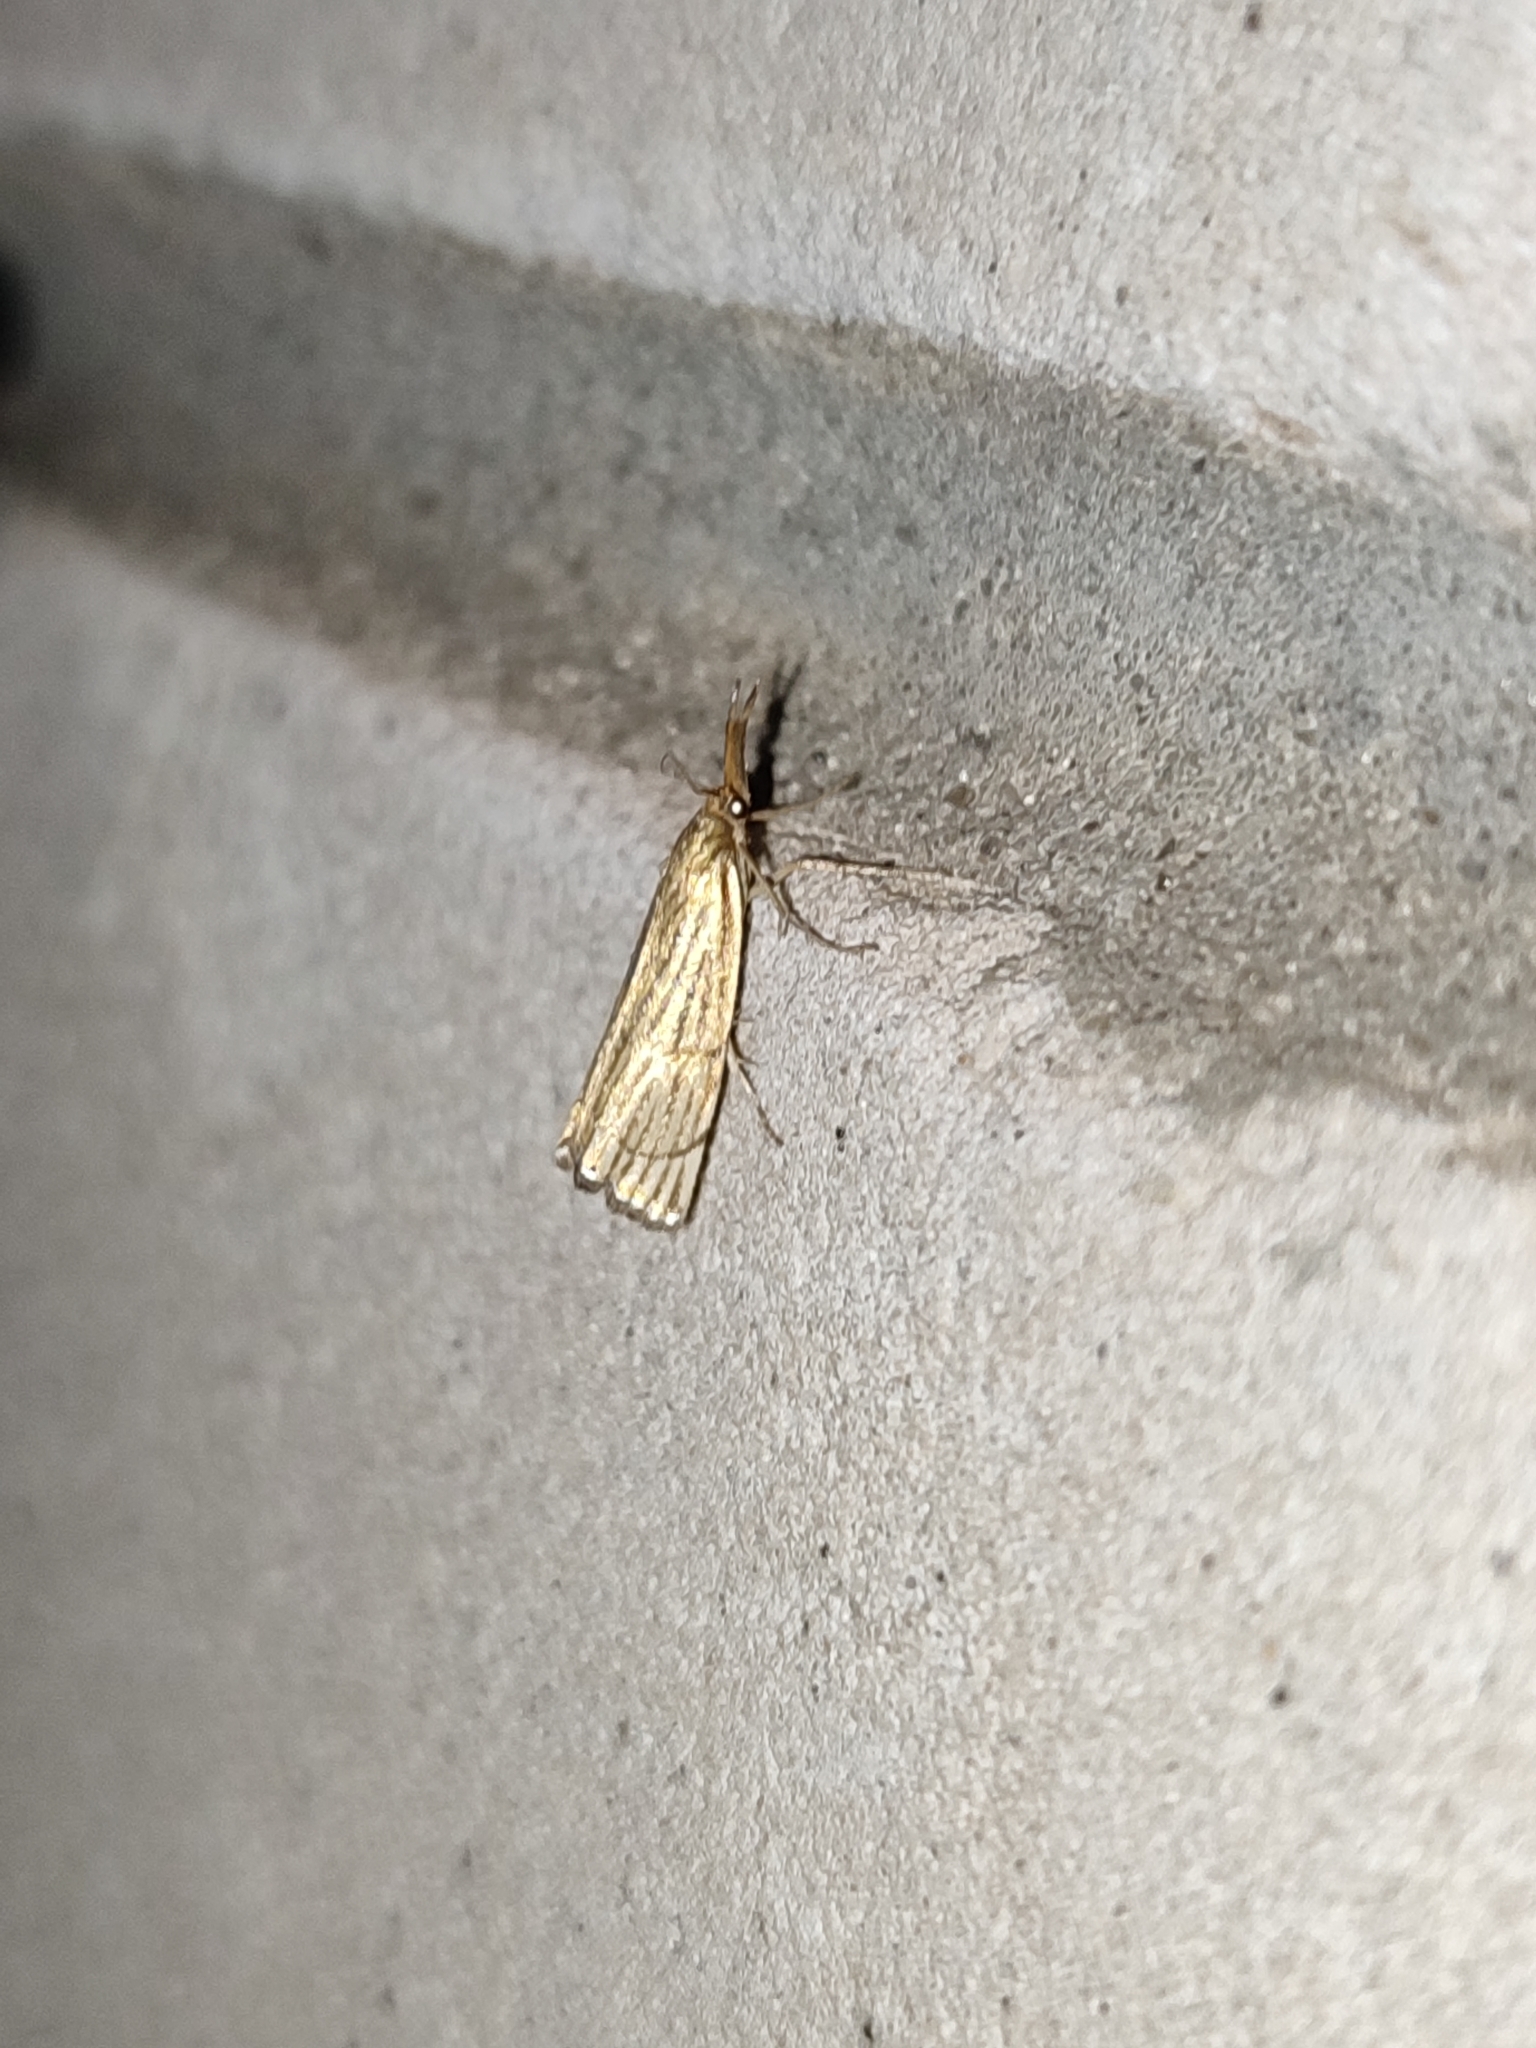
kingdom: Animalia
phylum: Arthropoda
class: Insecta
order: Lepidoptera
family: Crambidae
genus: Chrysocrambus
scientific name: Chrysocrambus linetella
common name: Orange-bar grass-veneer
